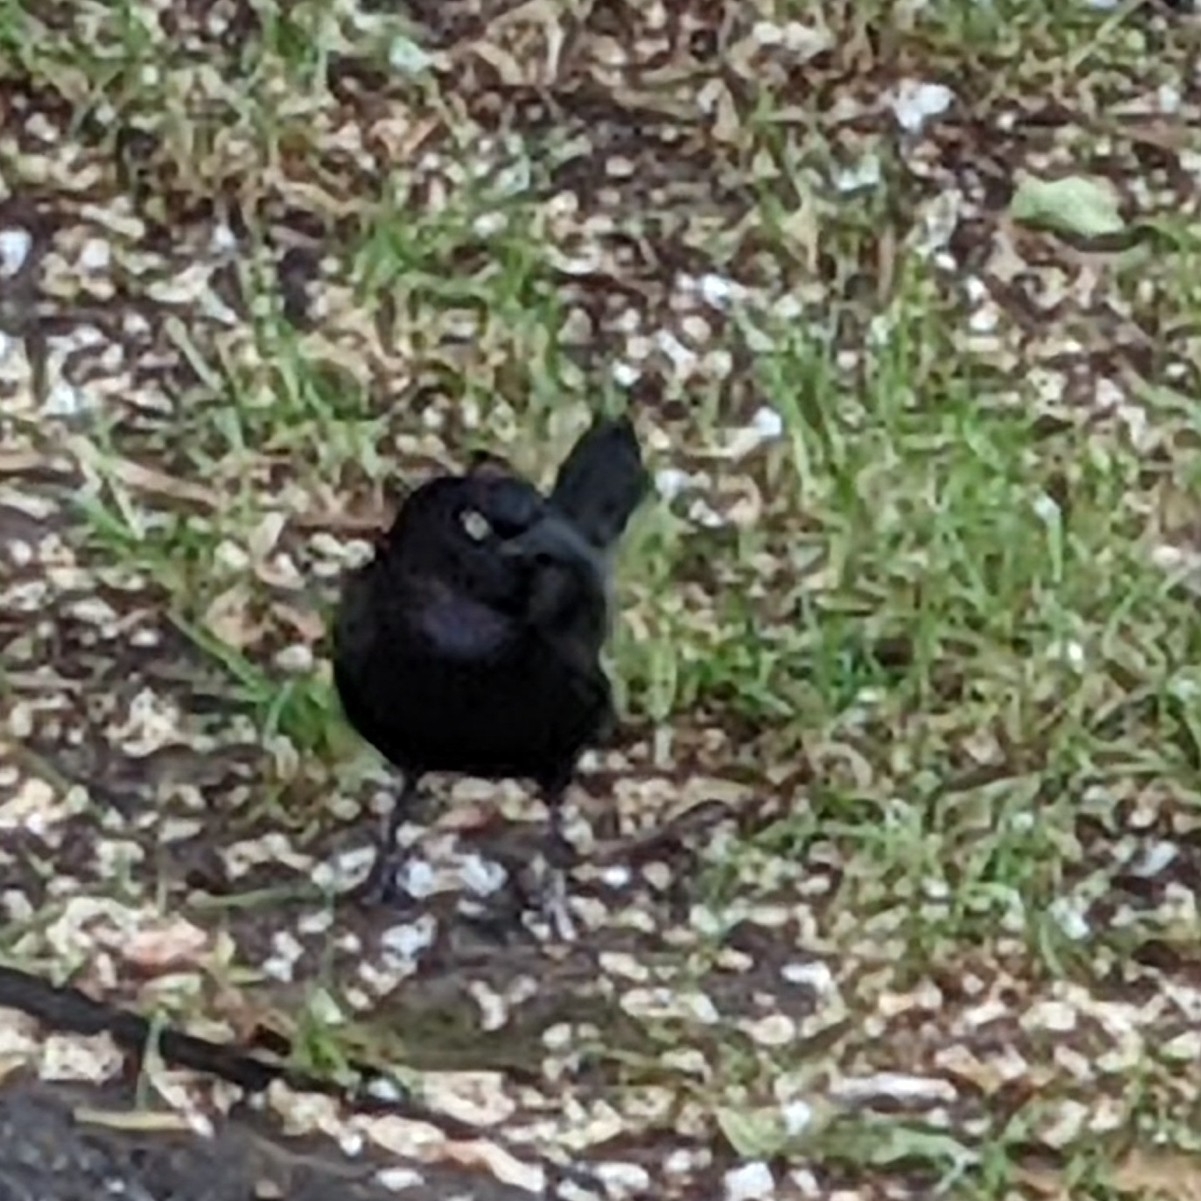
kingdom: Animalia
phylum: Chordata
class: Aves
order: Passeriformes
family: Icteridae
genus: Quiscalus
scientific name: Quiscalus quiscula
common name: Common grackle
